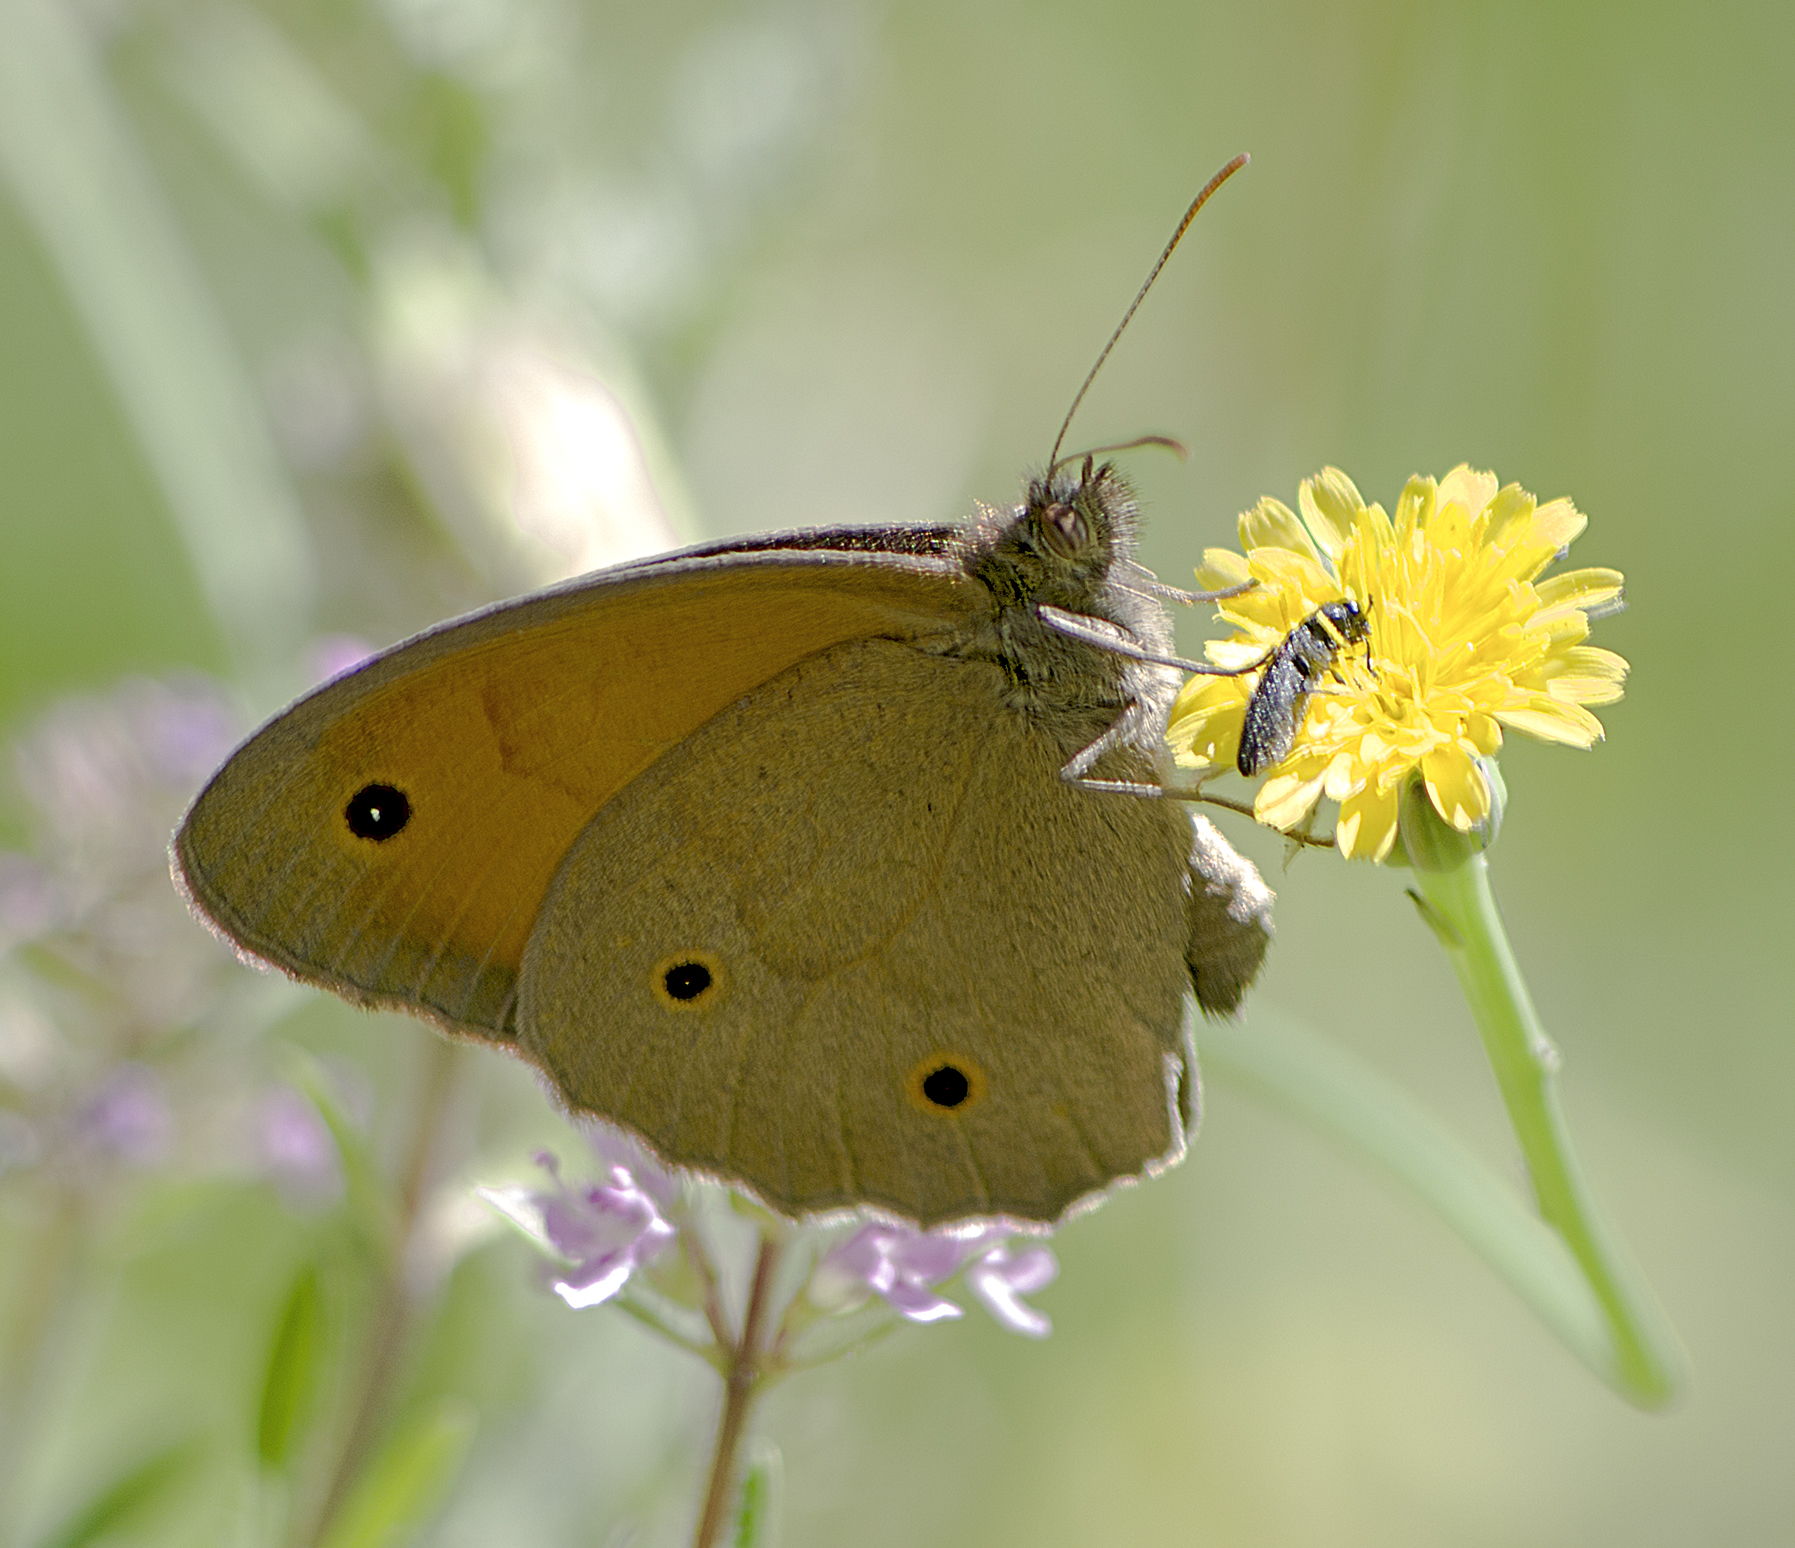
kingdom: Animalia
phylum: Arthropoda
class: Insecta
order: Lepidoptera
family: Nymphalidae
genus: Maniola
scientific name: Maniola jurtina
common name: Meadow brown
